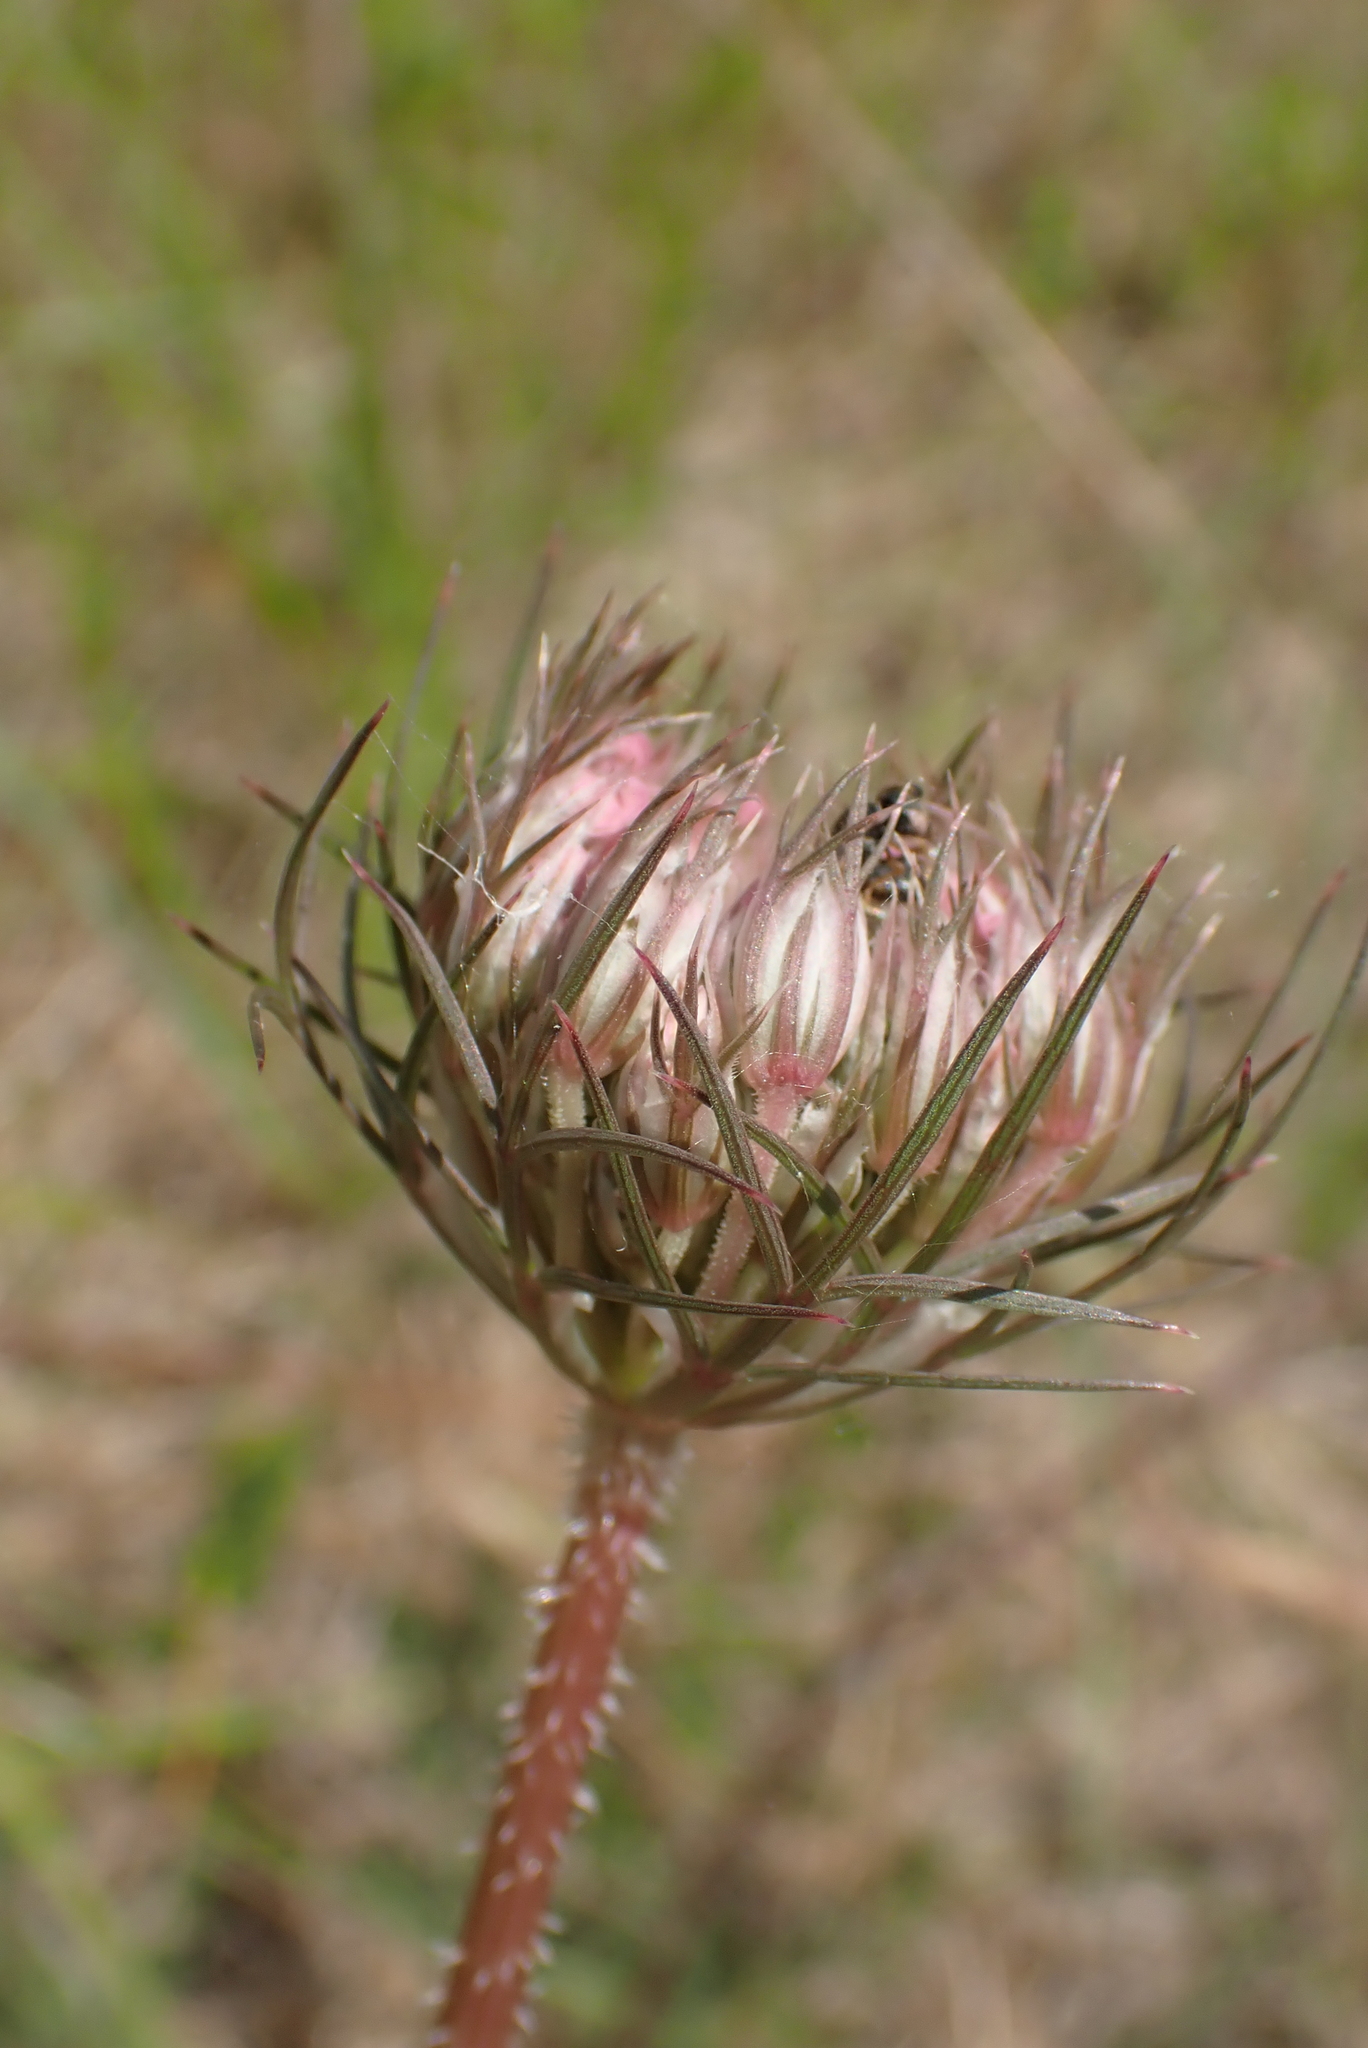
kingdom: Plantae
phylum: Tracheophyta
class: Magnoliopsida
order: Apiales
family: Apiaceae
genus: Daucus
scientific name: Daucus carota
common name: Wild carrot
